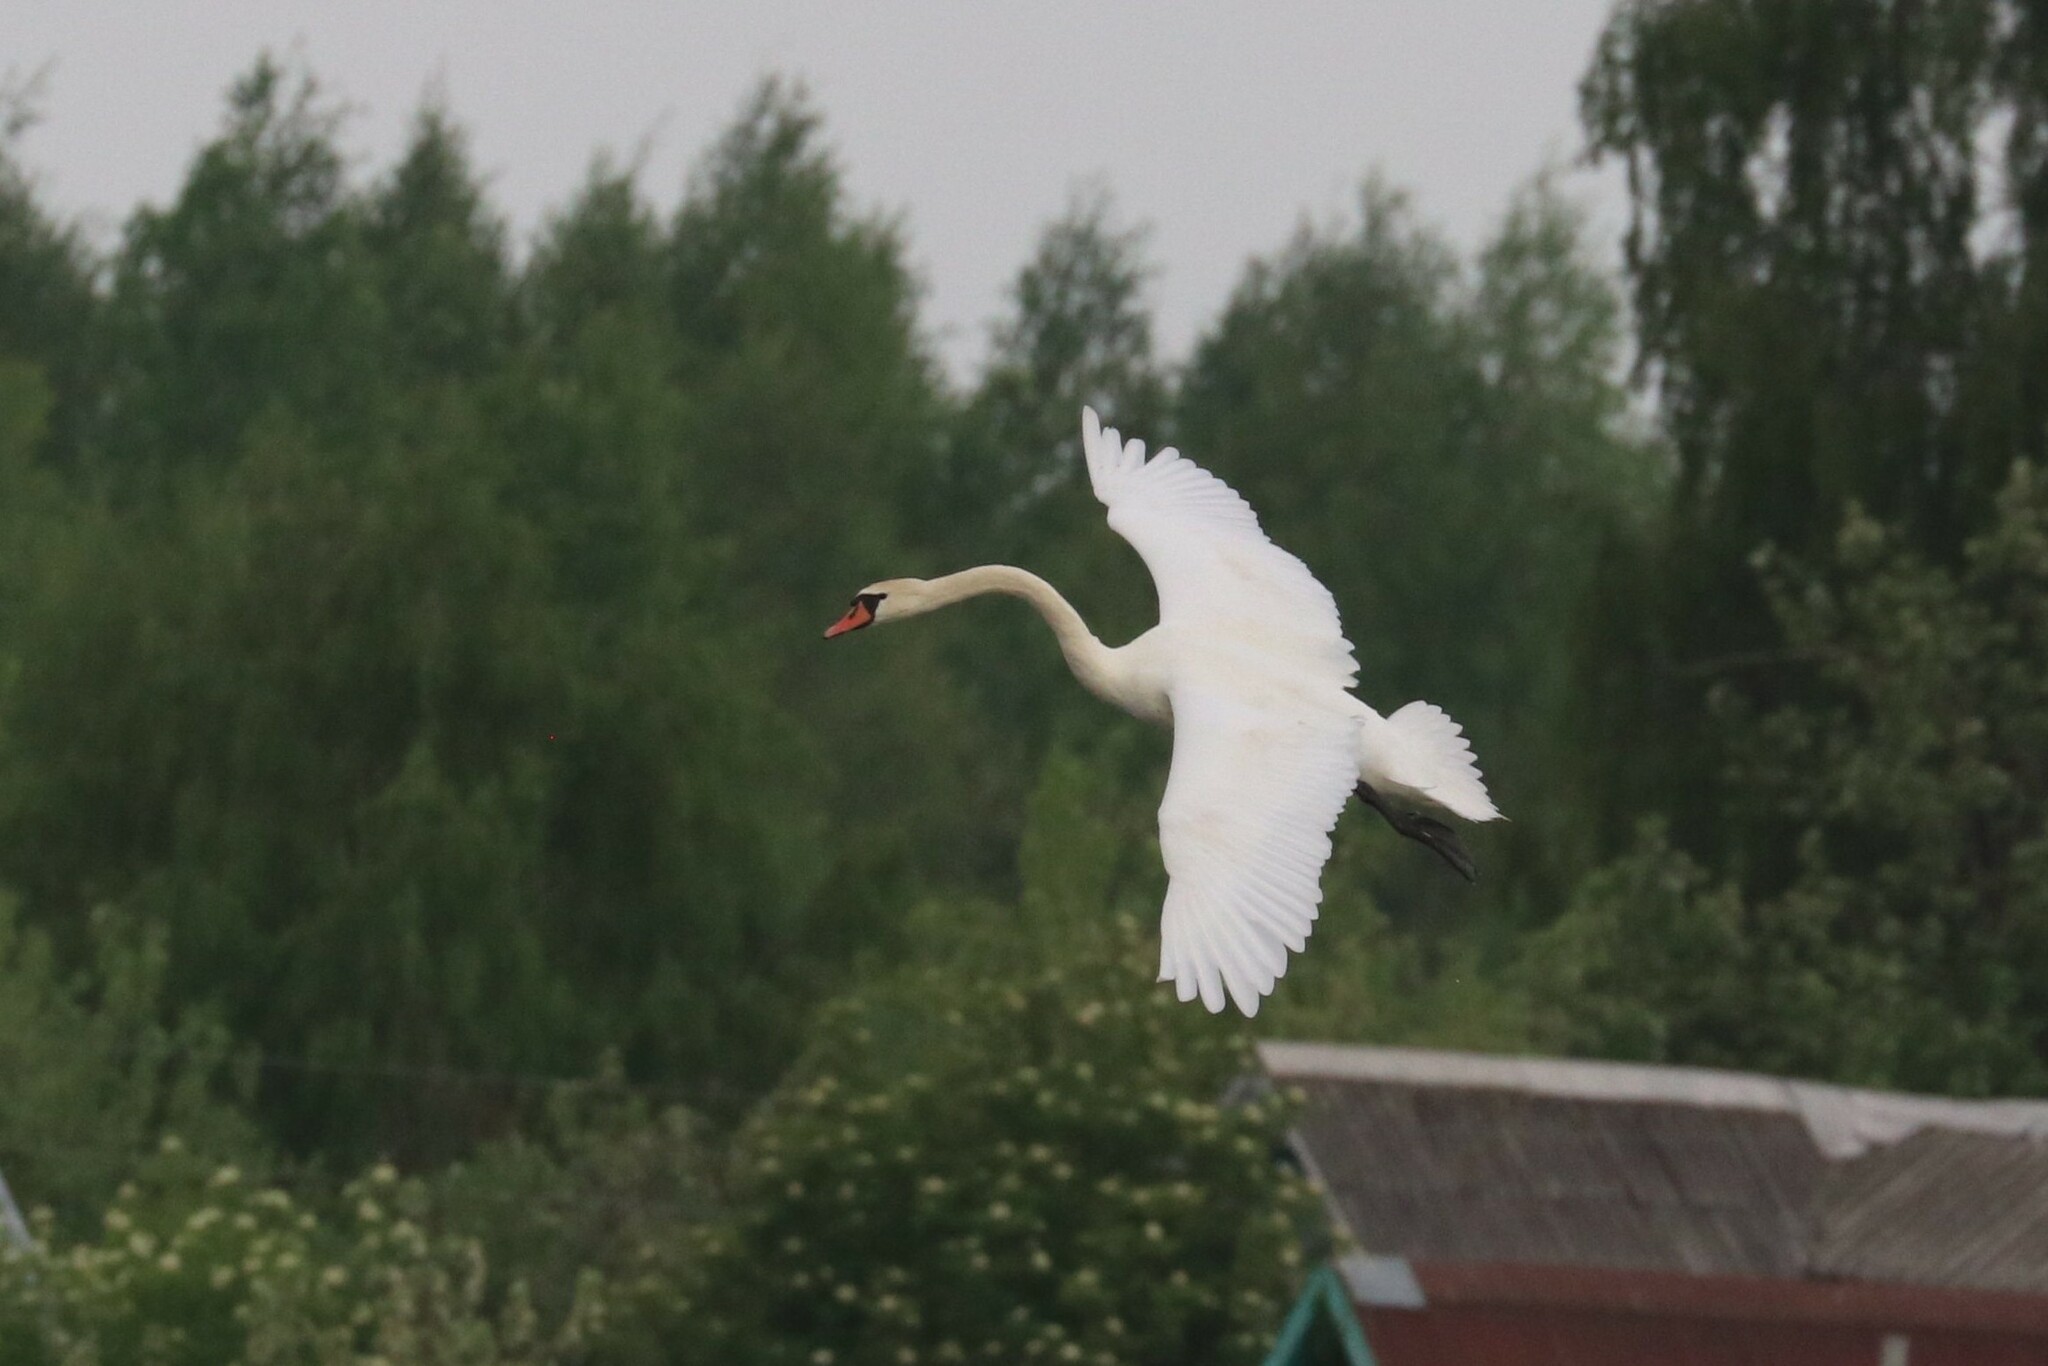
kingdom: Animalia
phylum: Chordata
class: Aves
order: Anseriformes
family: Anatidae
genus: Cygnus
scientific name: Cygnus olor
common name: Mute swan
